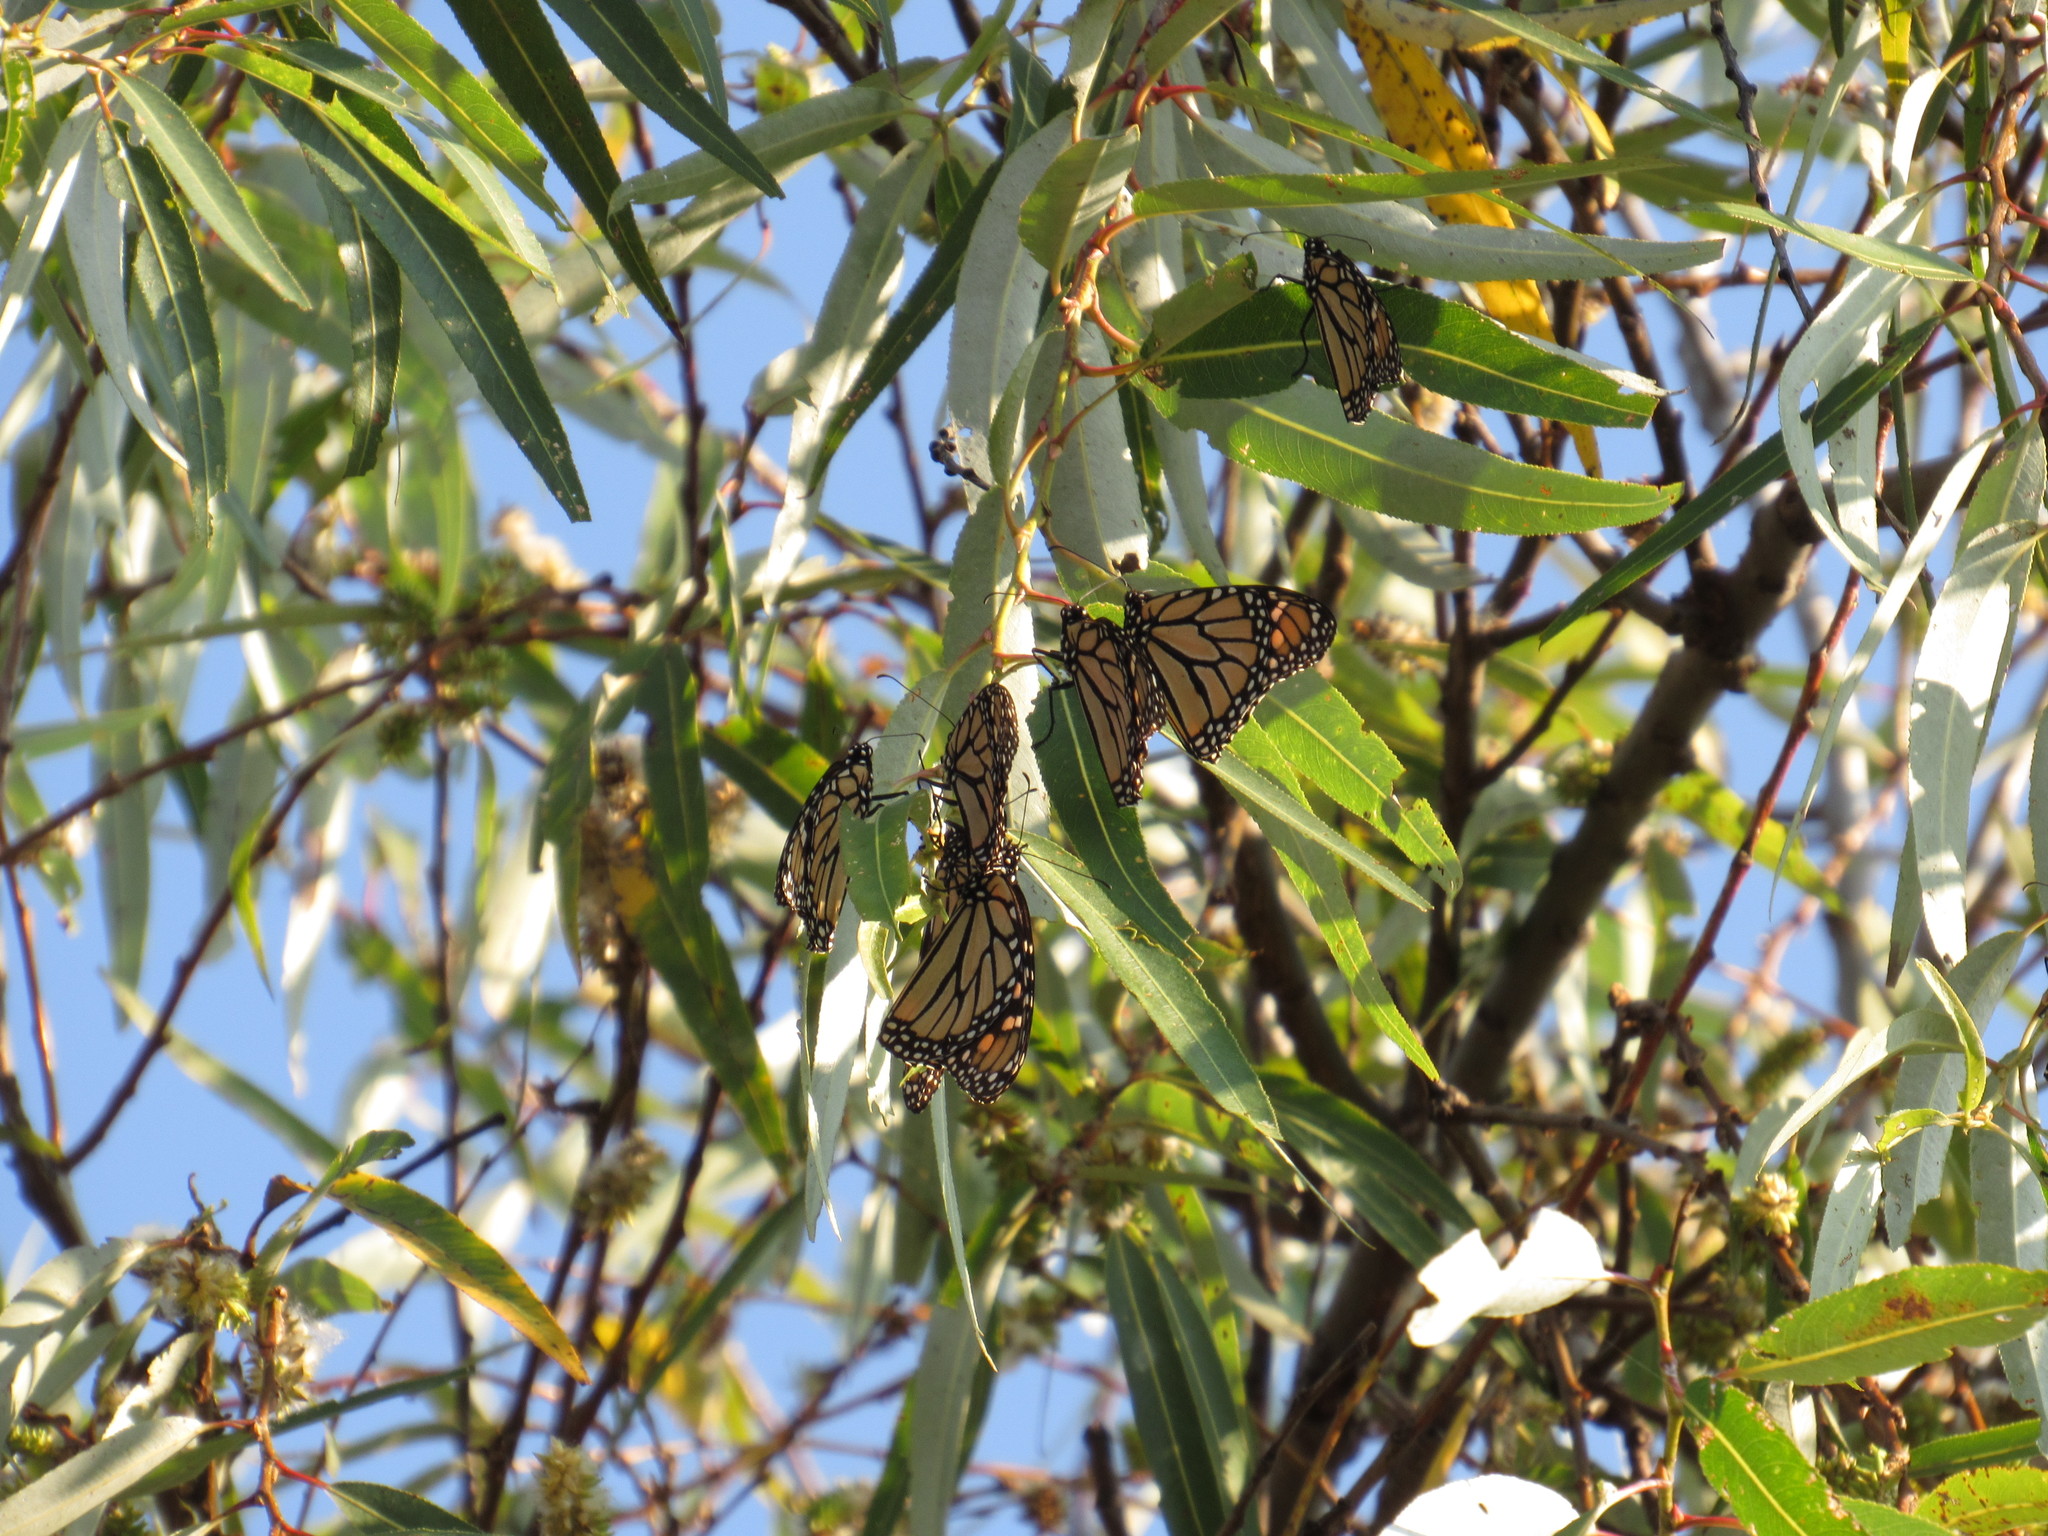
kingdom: Animalia
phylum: Arthropoda
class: Insecta
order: Lepidoptera
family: Nymphalidae
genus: Danaus
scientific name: Danaus plexippus
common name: Monarch
